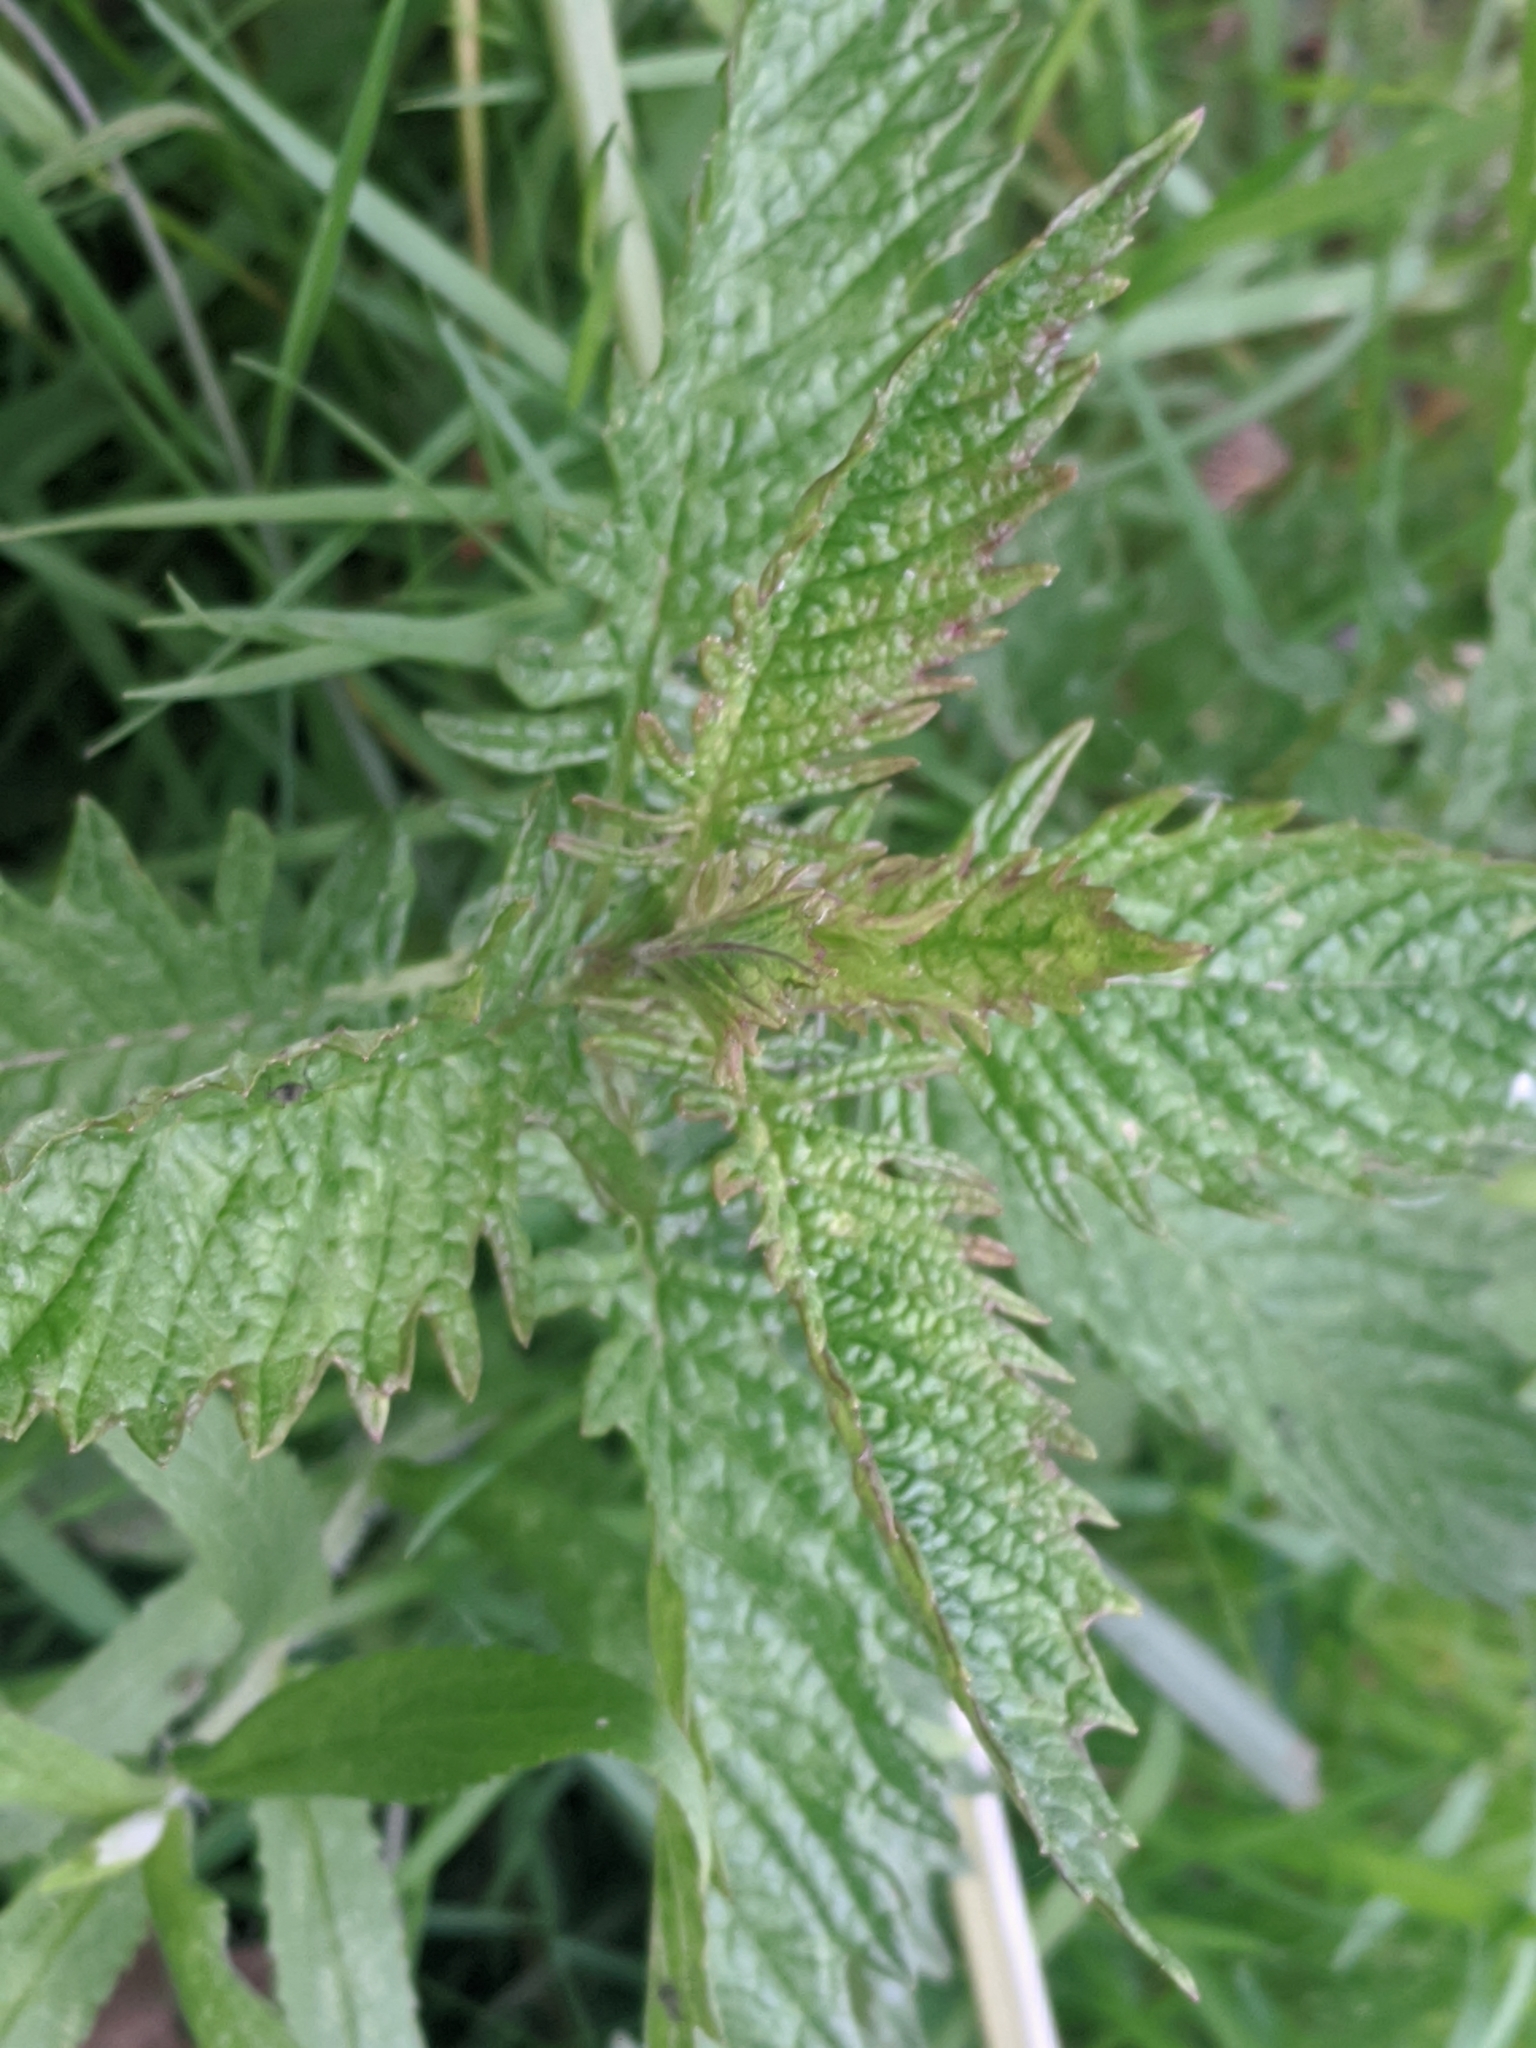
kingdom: Plantae
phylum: Tracheophyta
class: Magnoliopsida
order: Lamiales
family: Lamiaceae
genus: Lycopus
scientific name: Lycopus europaeus
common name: European bugleweed
